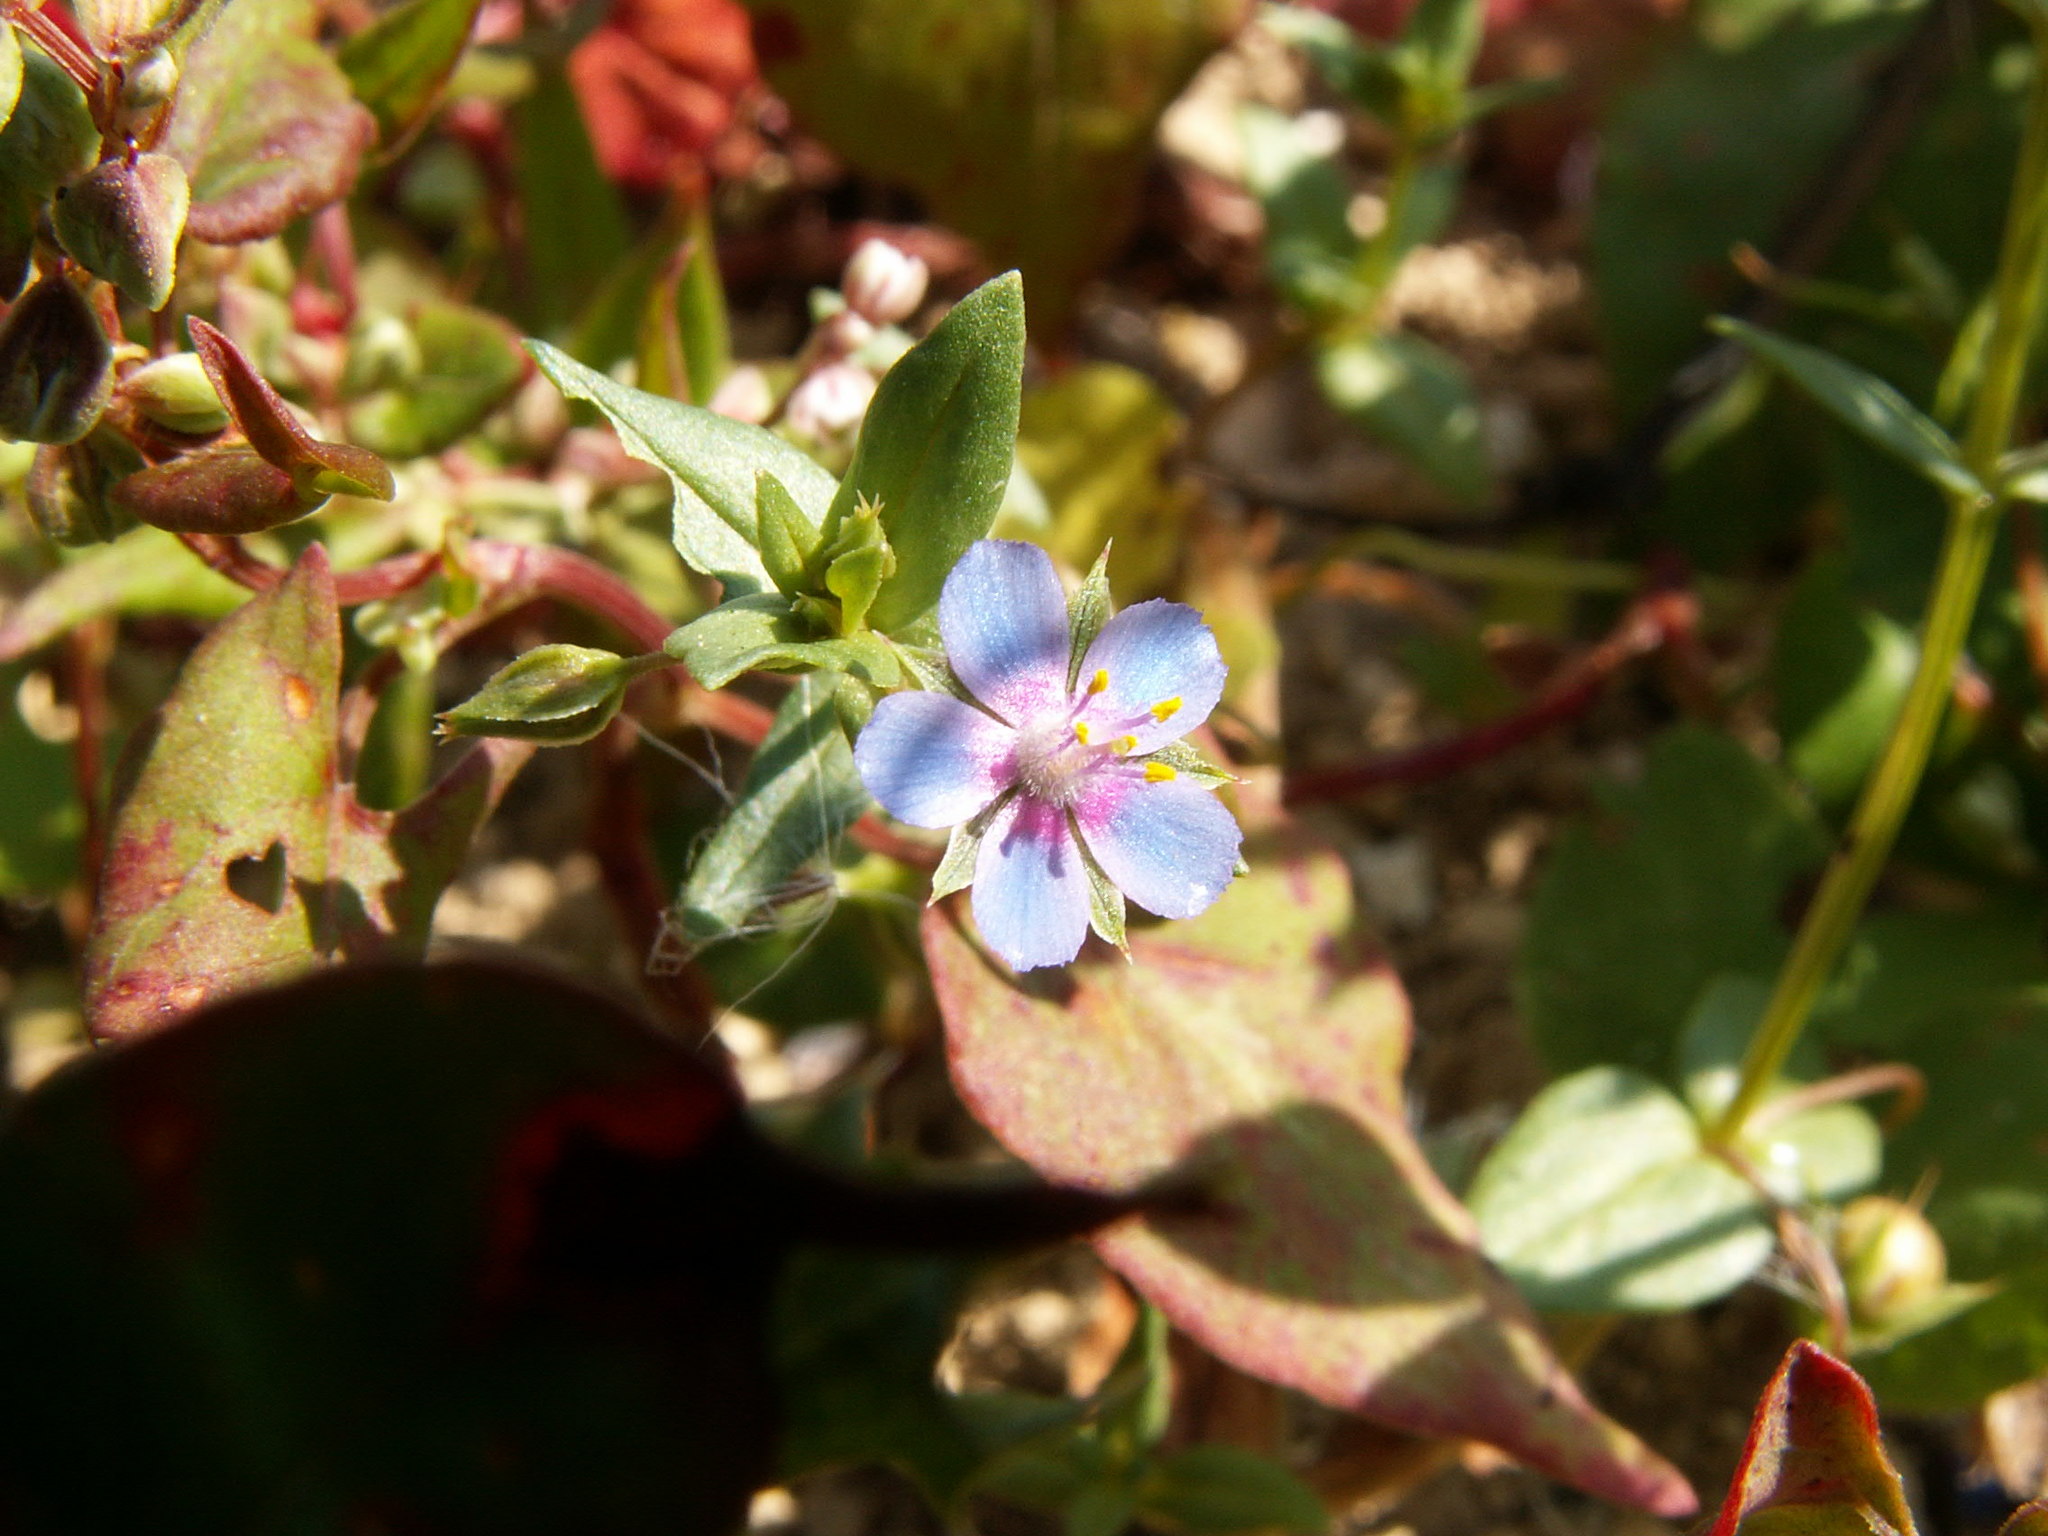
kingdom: Plantae
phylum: Tracheophyta
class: Magnoliopsida
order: Ericales
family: Primulaceae
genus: Lysimachia
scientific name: Lysimachia loeflingii
